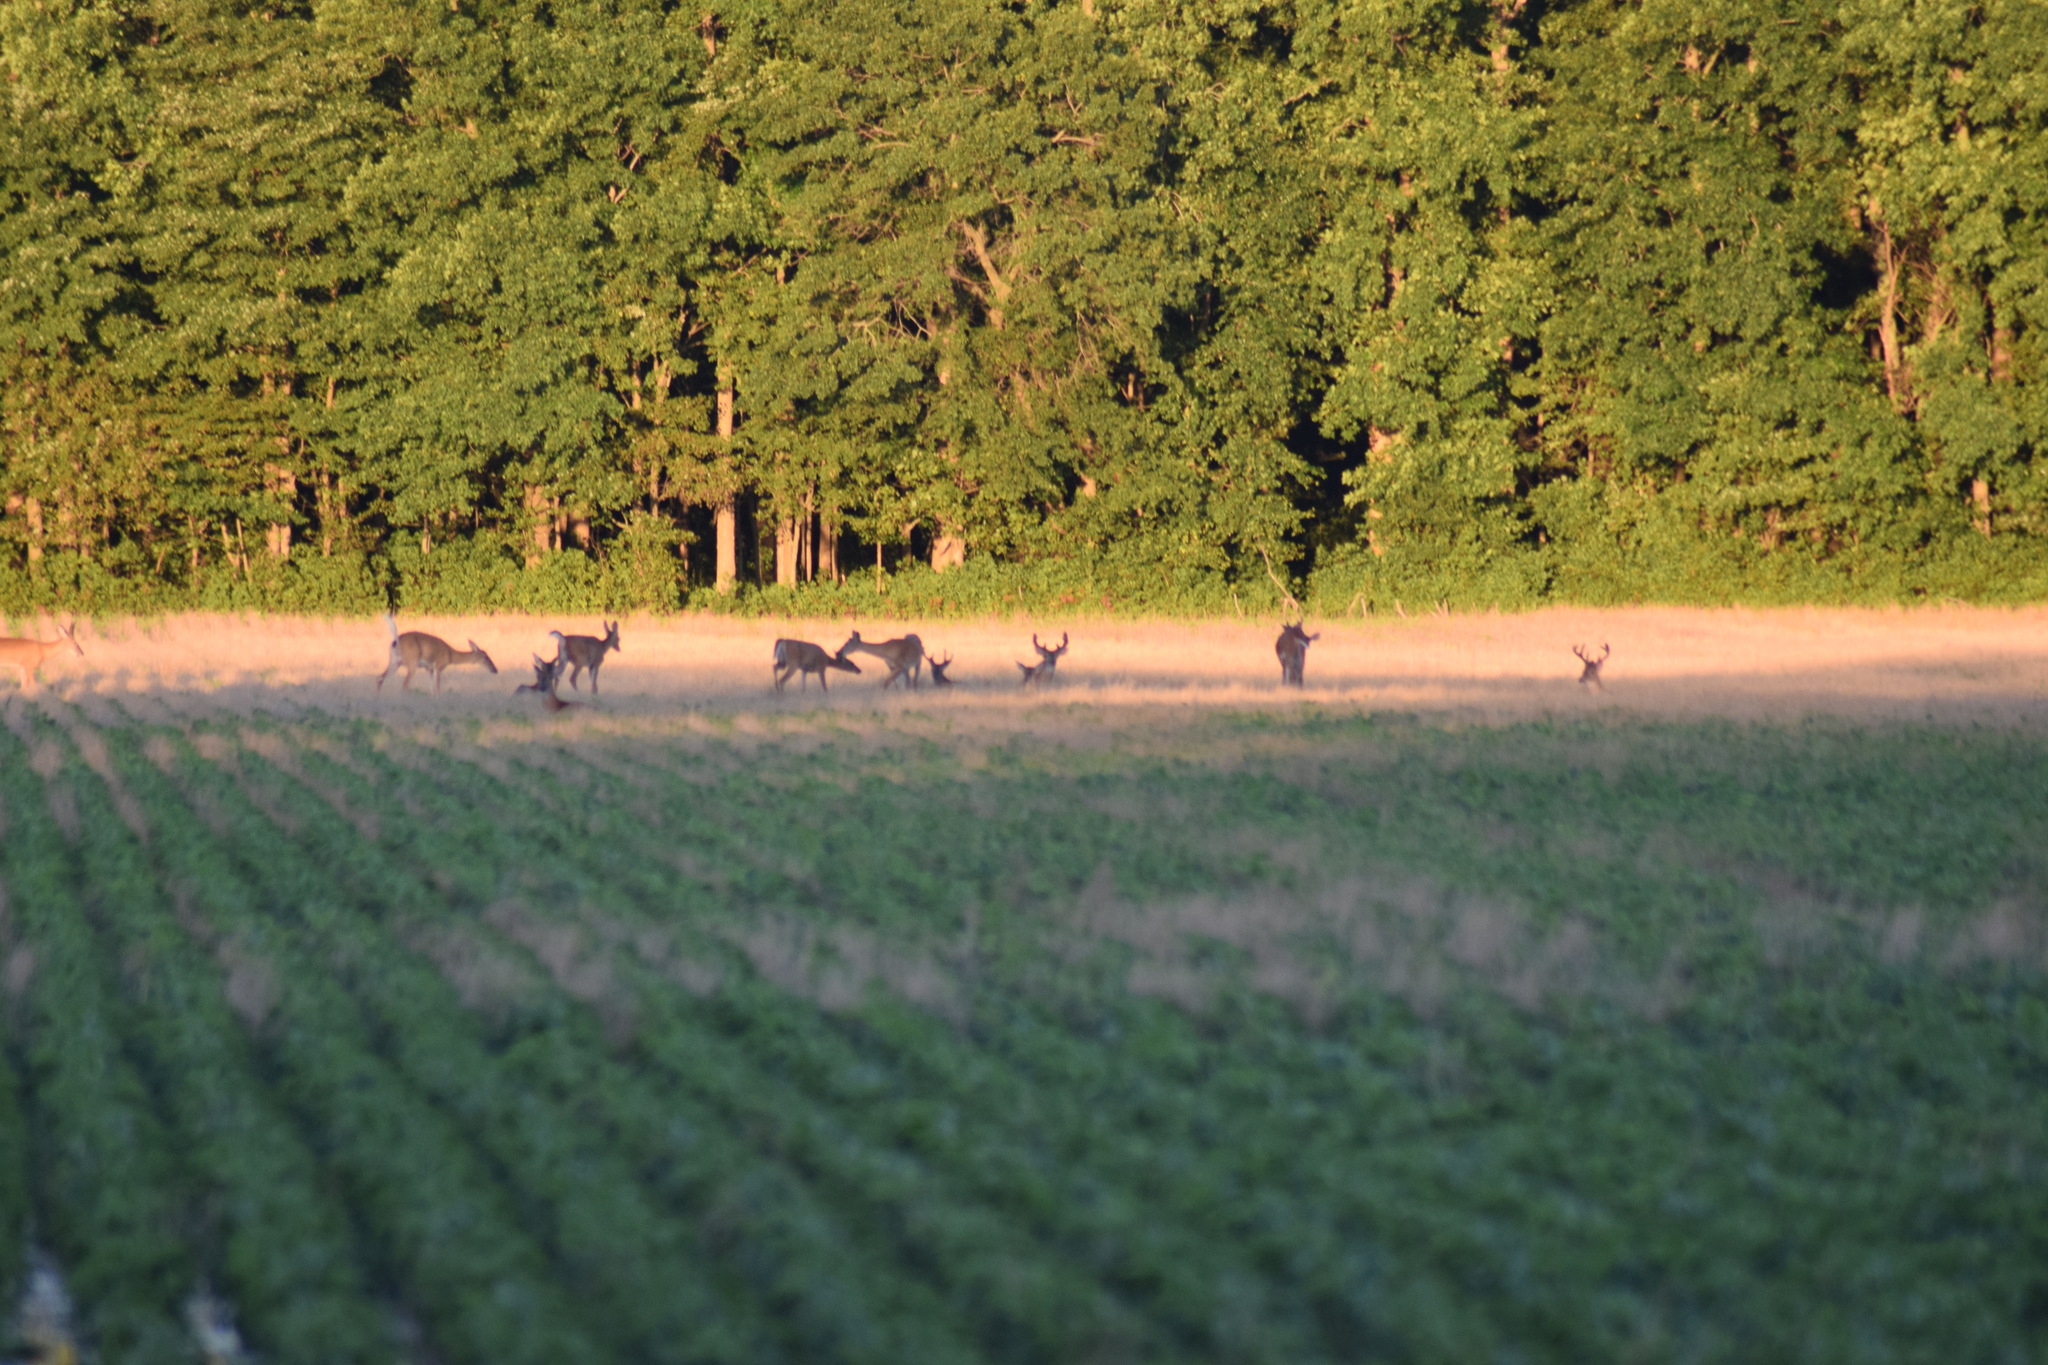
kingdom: Animalia
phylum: Chordata
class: Mammalia
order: Artiodactyla
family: Cervidae
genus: Odocoileus
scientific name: Odocoileus virginianus
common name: White-tailed deer
